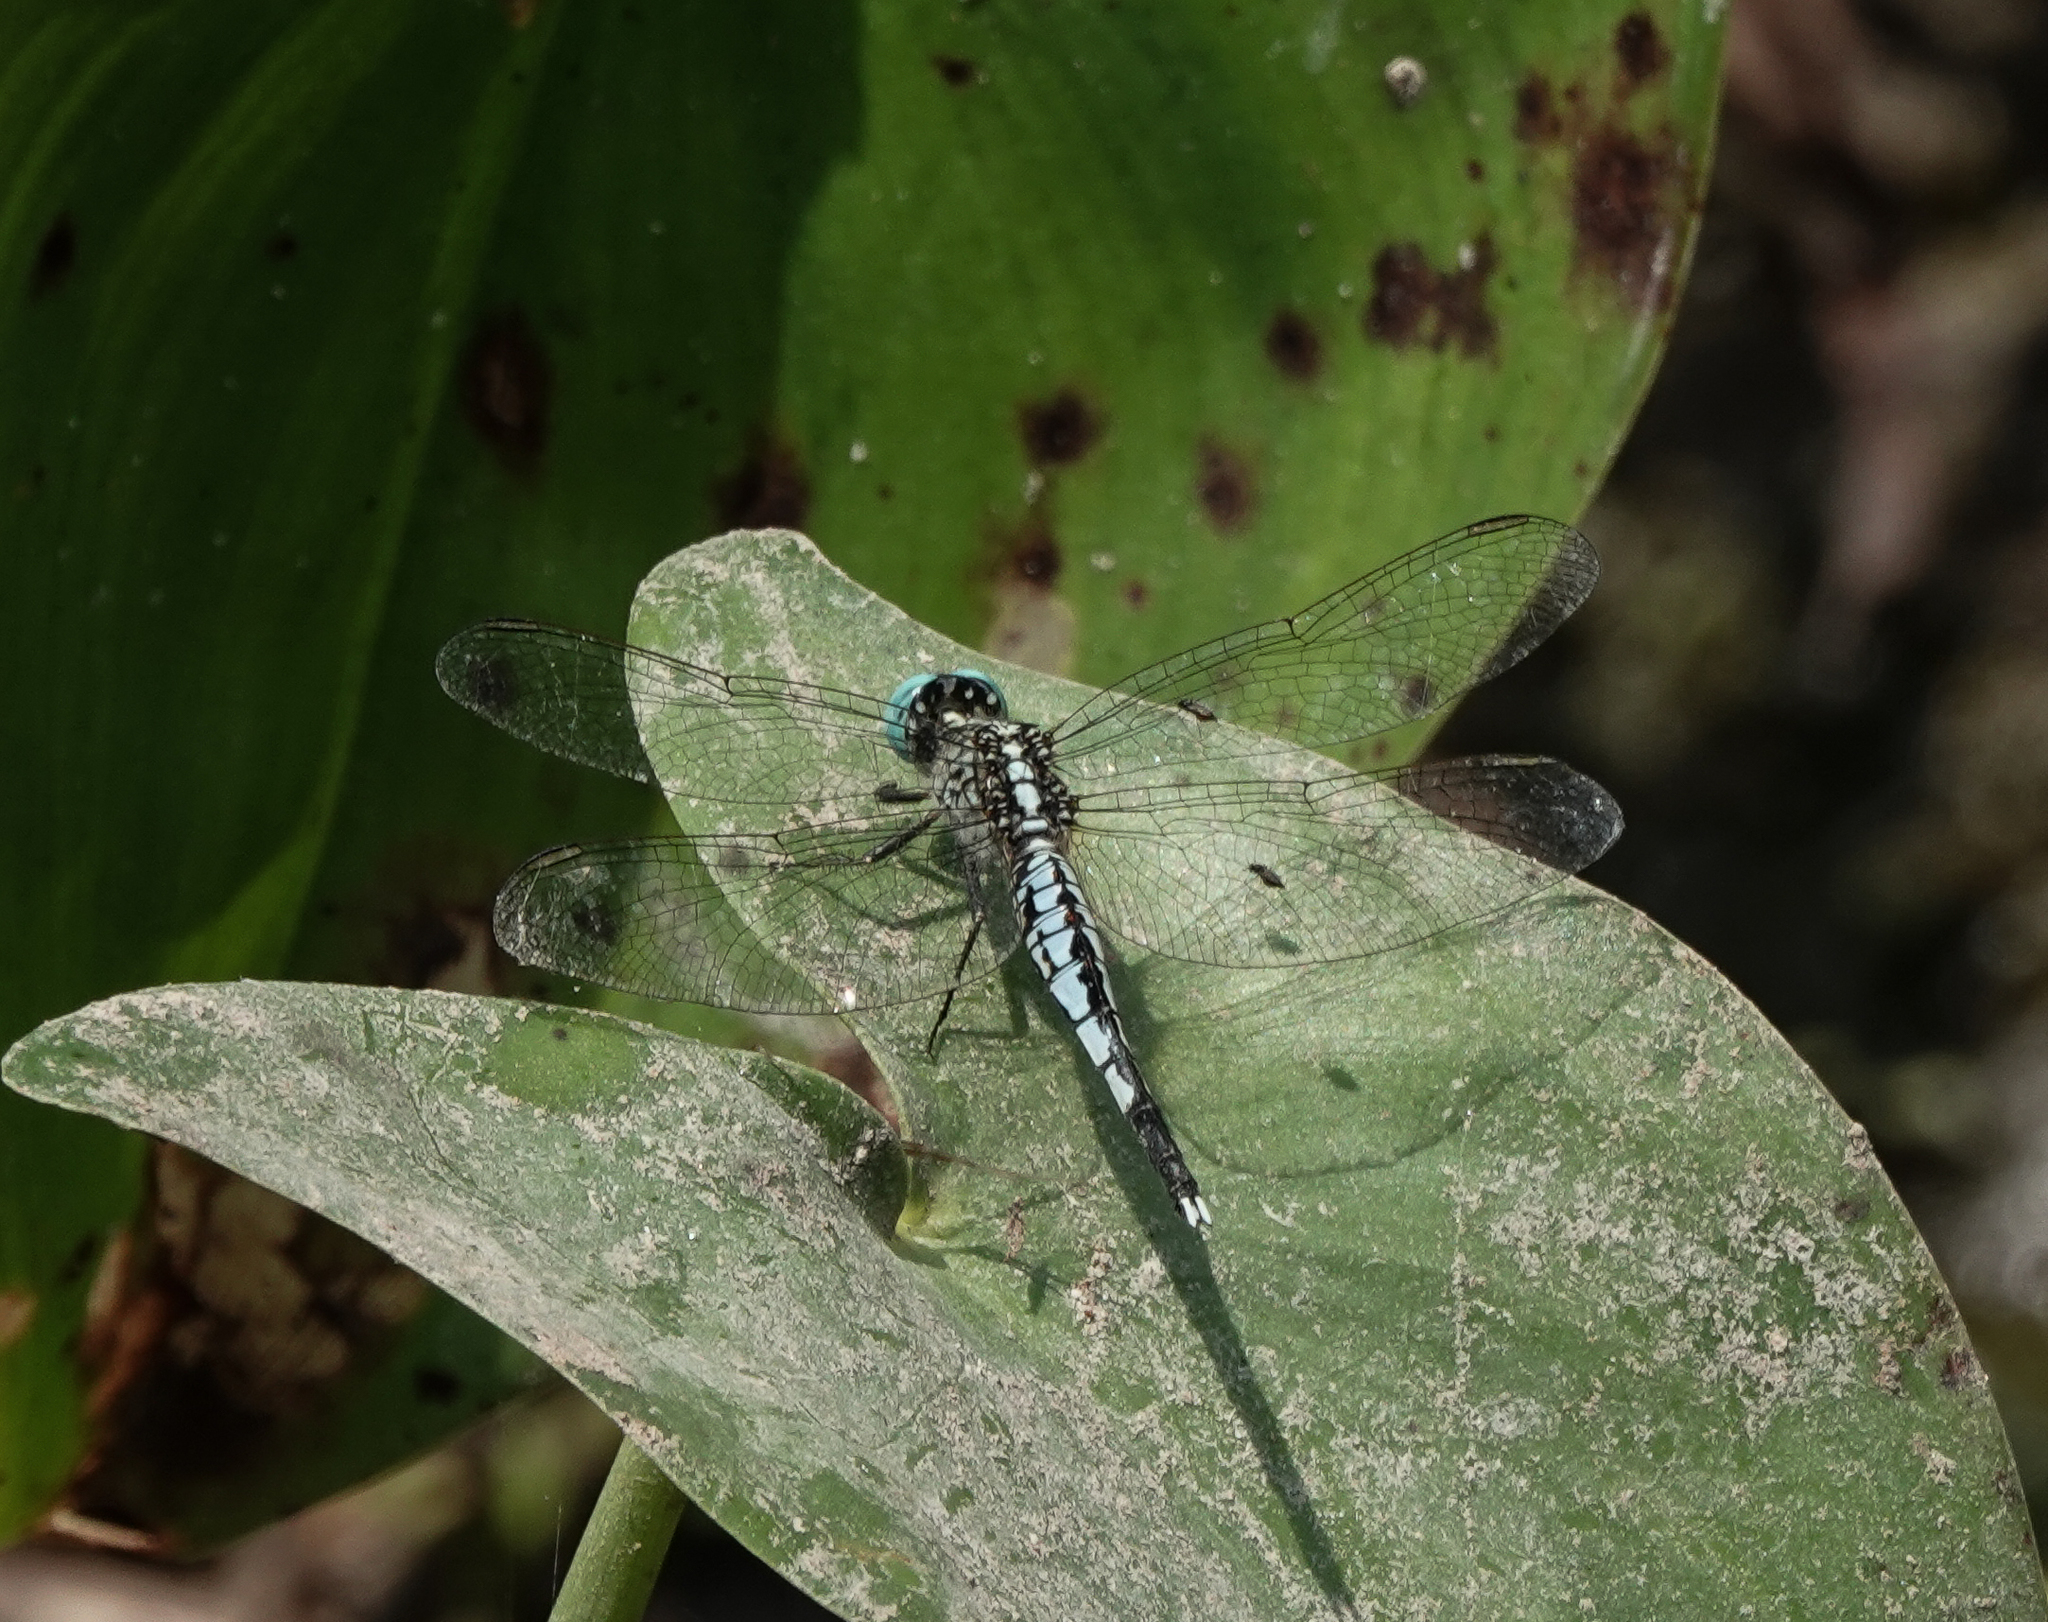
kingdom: Animalia
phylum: Arthropoda
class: Insecta
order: Odonata
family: Libellulidae
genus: Acisoma
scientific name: Acisoma panorpoides
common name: Asian pintail
